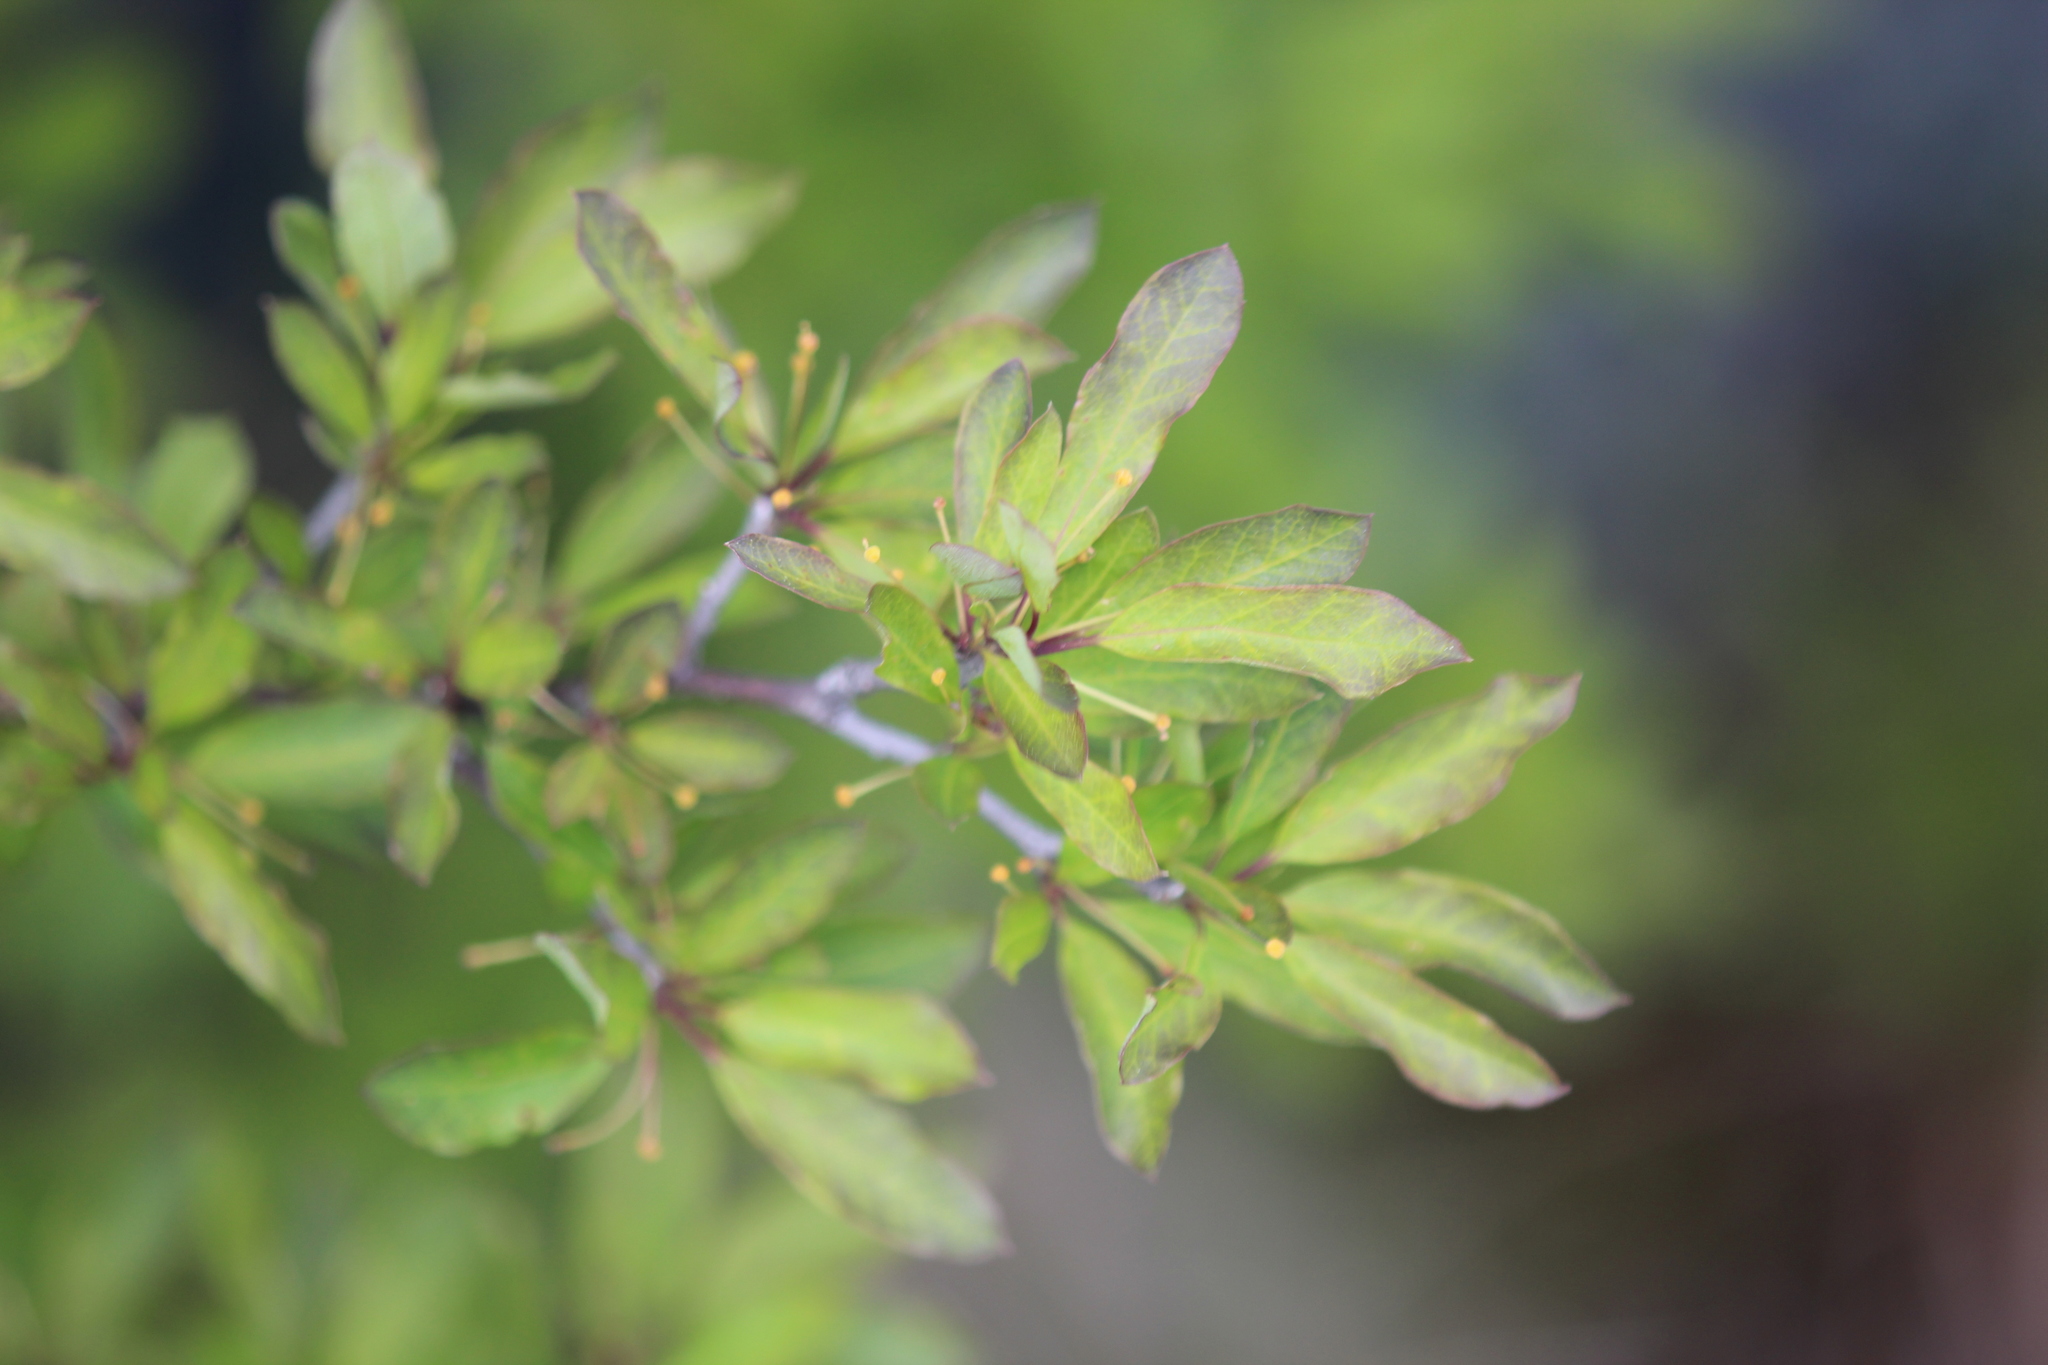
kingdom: Plantae
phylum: Tracheophyta
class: Magnoliopsida
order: Aquifoliales
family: Aquifoliaceae
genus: Ilex
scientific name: Ilex mucronata
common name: Catberry
